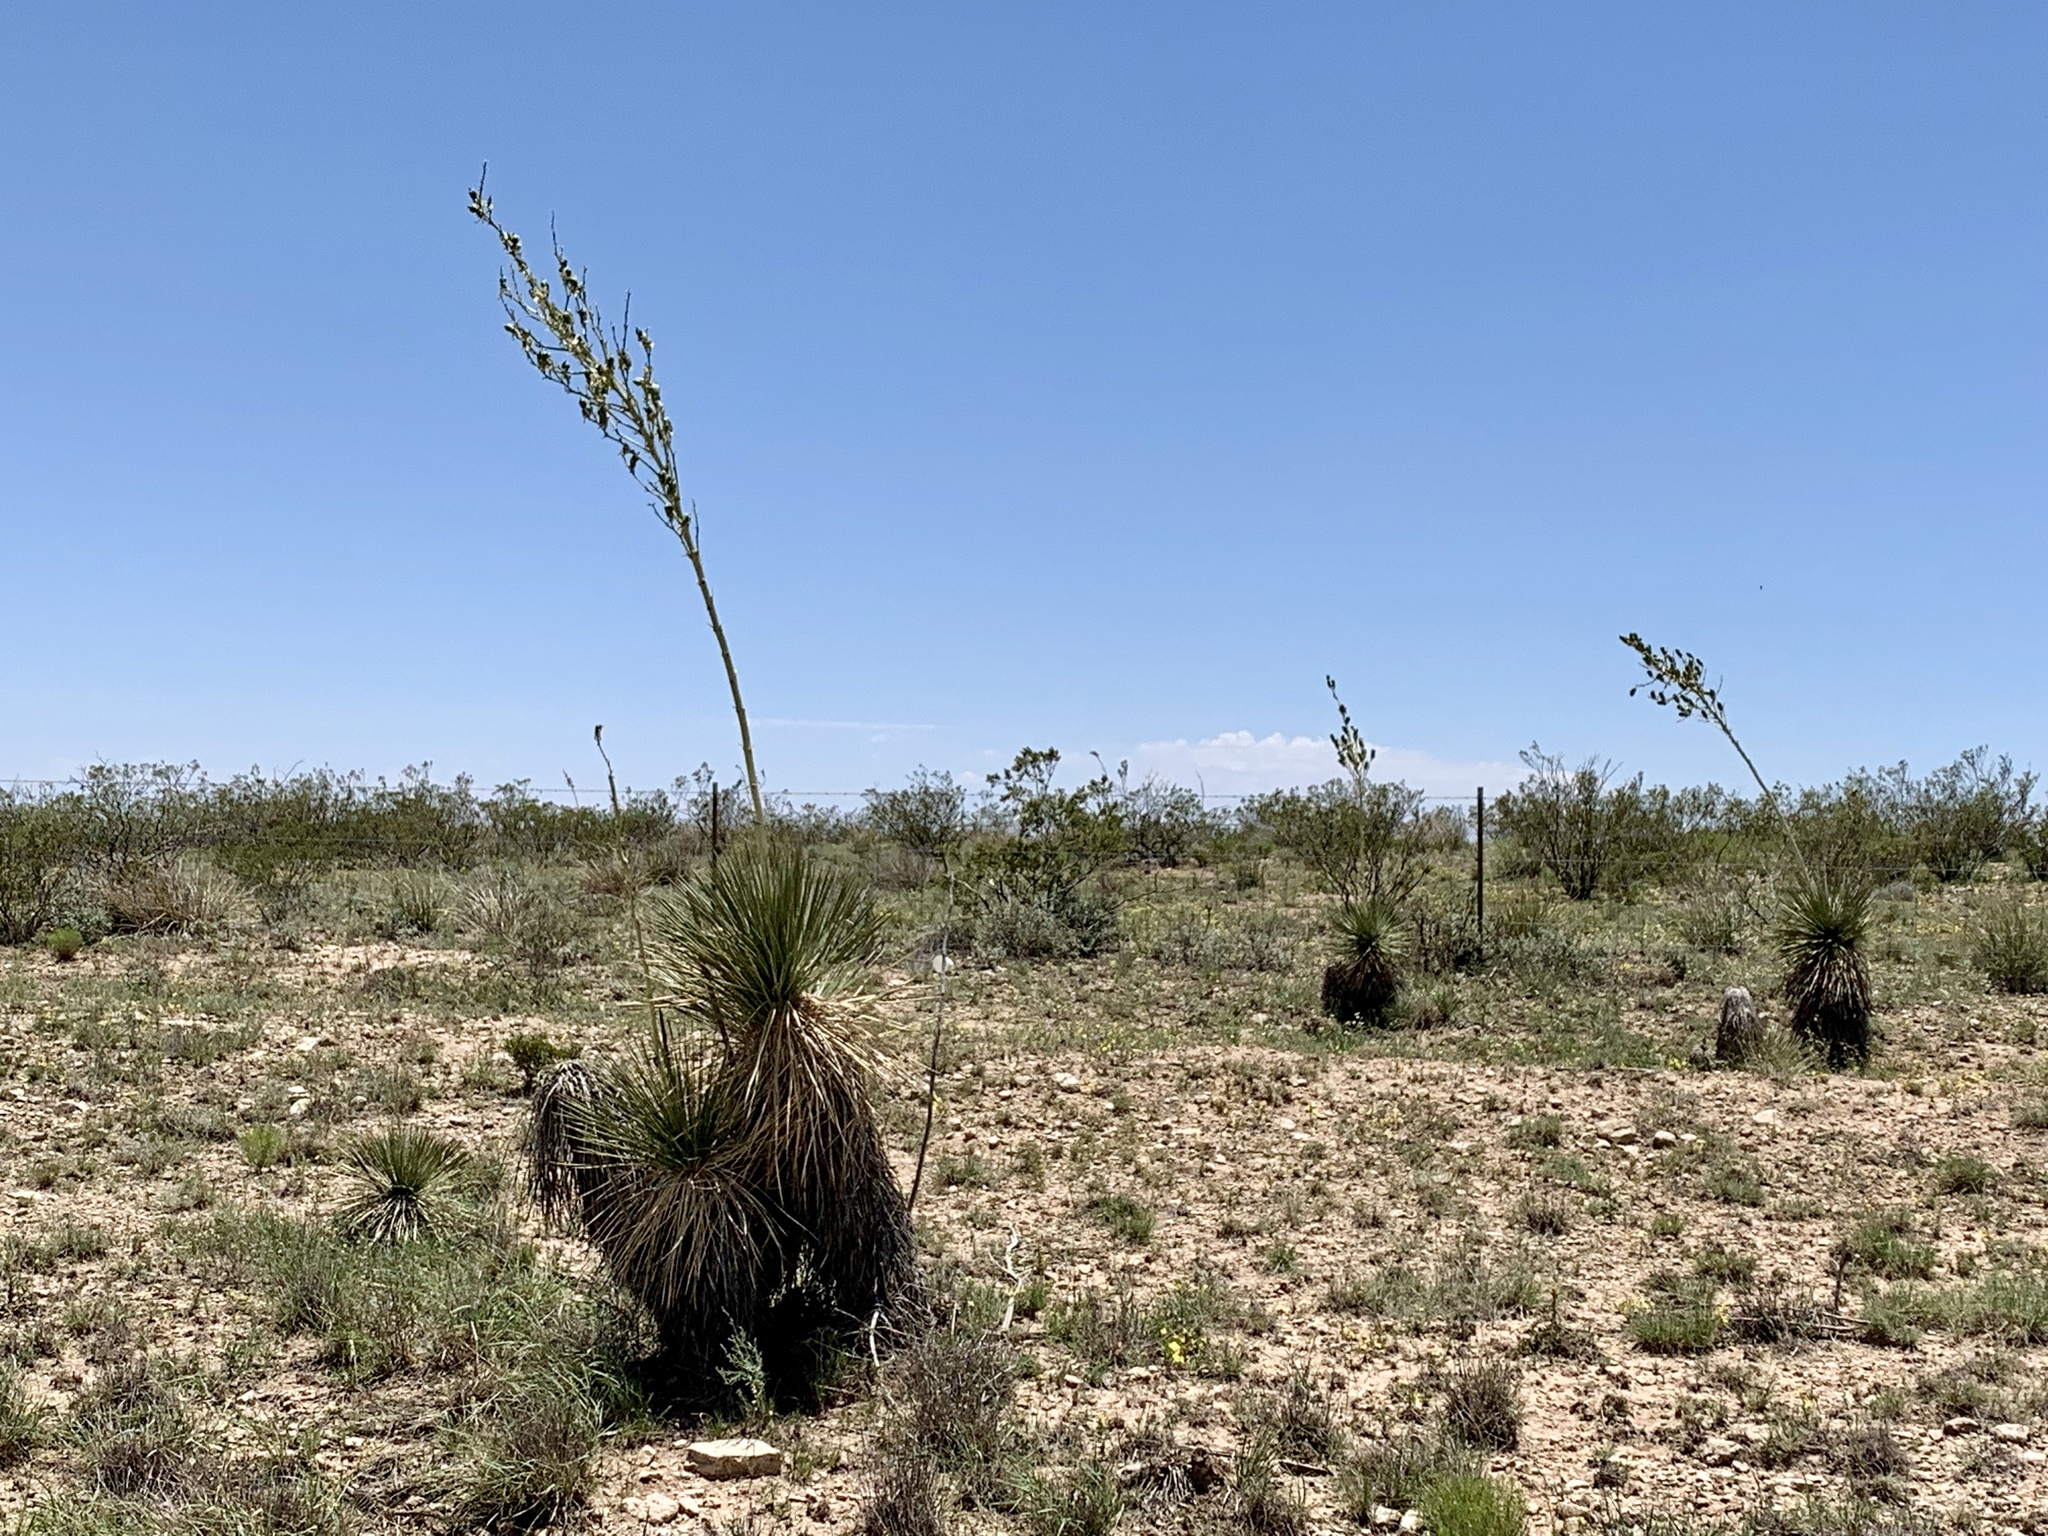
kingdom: Plantae
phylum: Tracheophyta
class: Liliopsida
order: Asparagales
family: Asparagaceae
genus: Yucca
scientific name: Yucca elata
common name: Palmella
